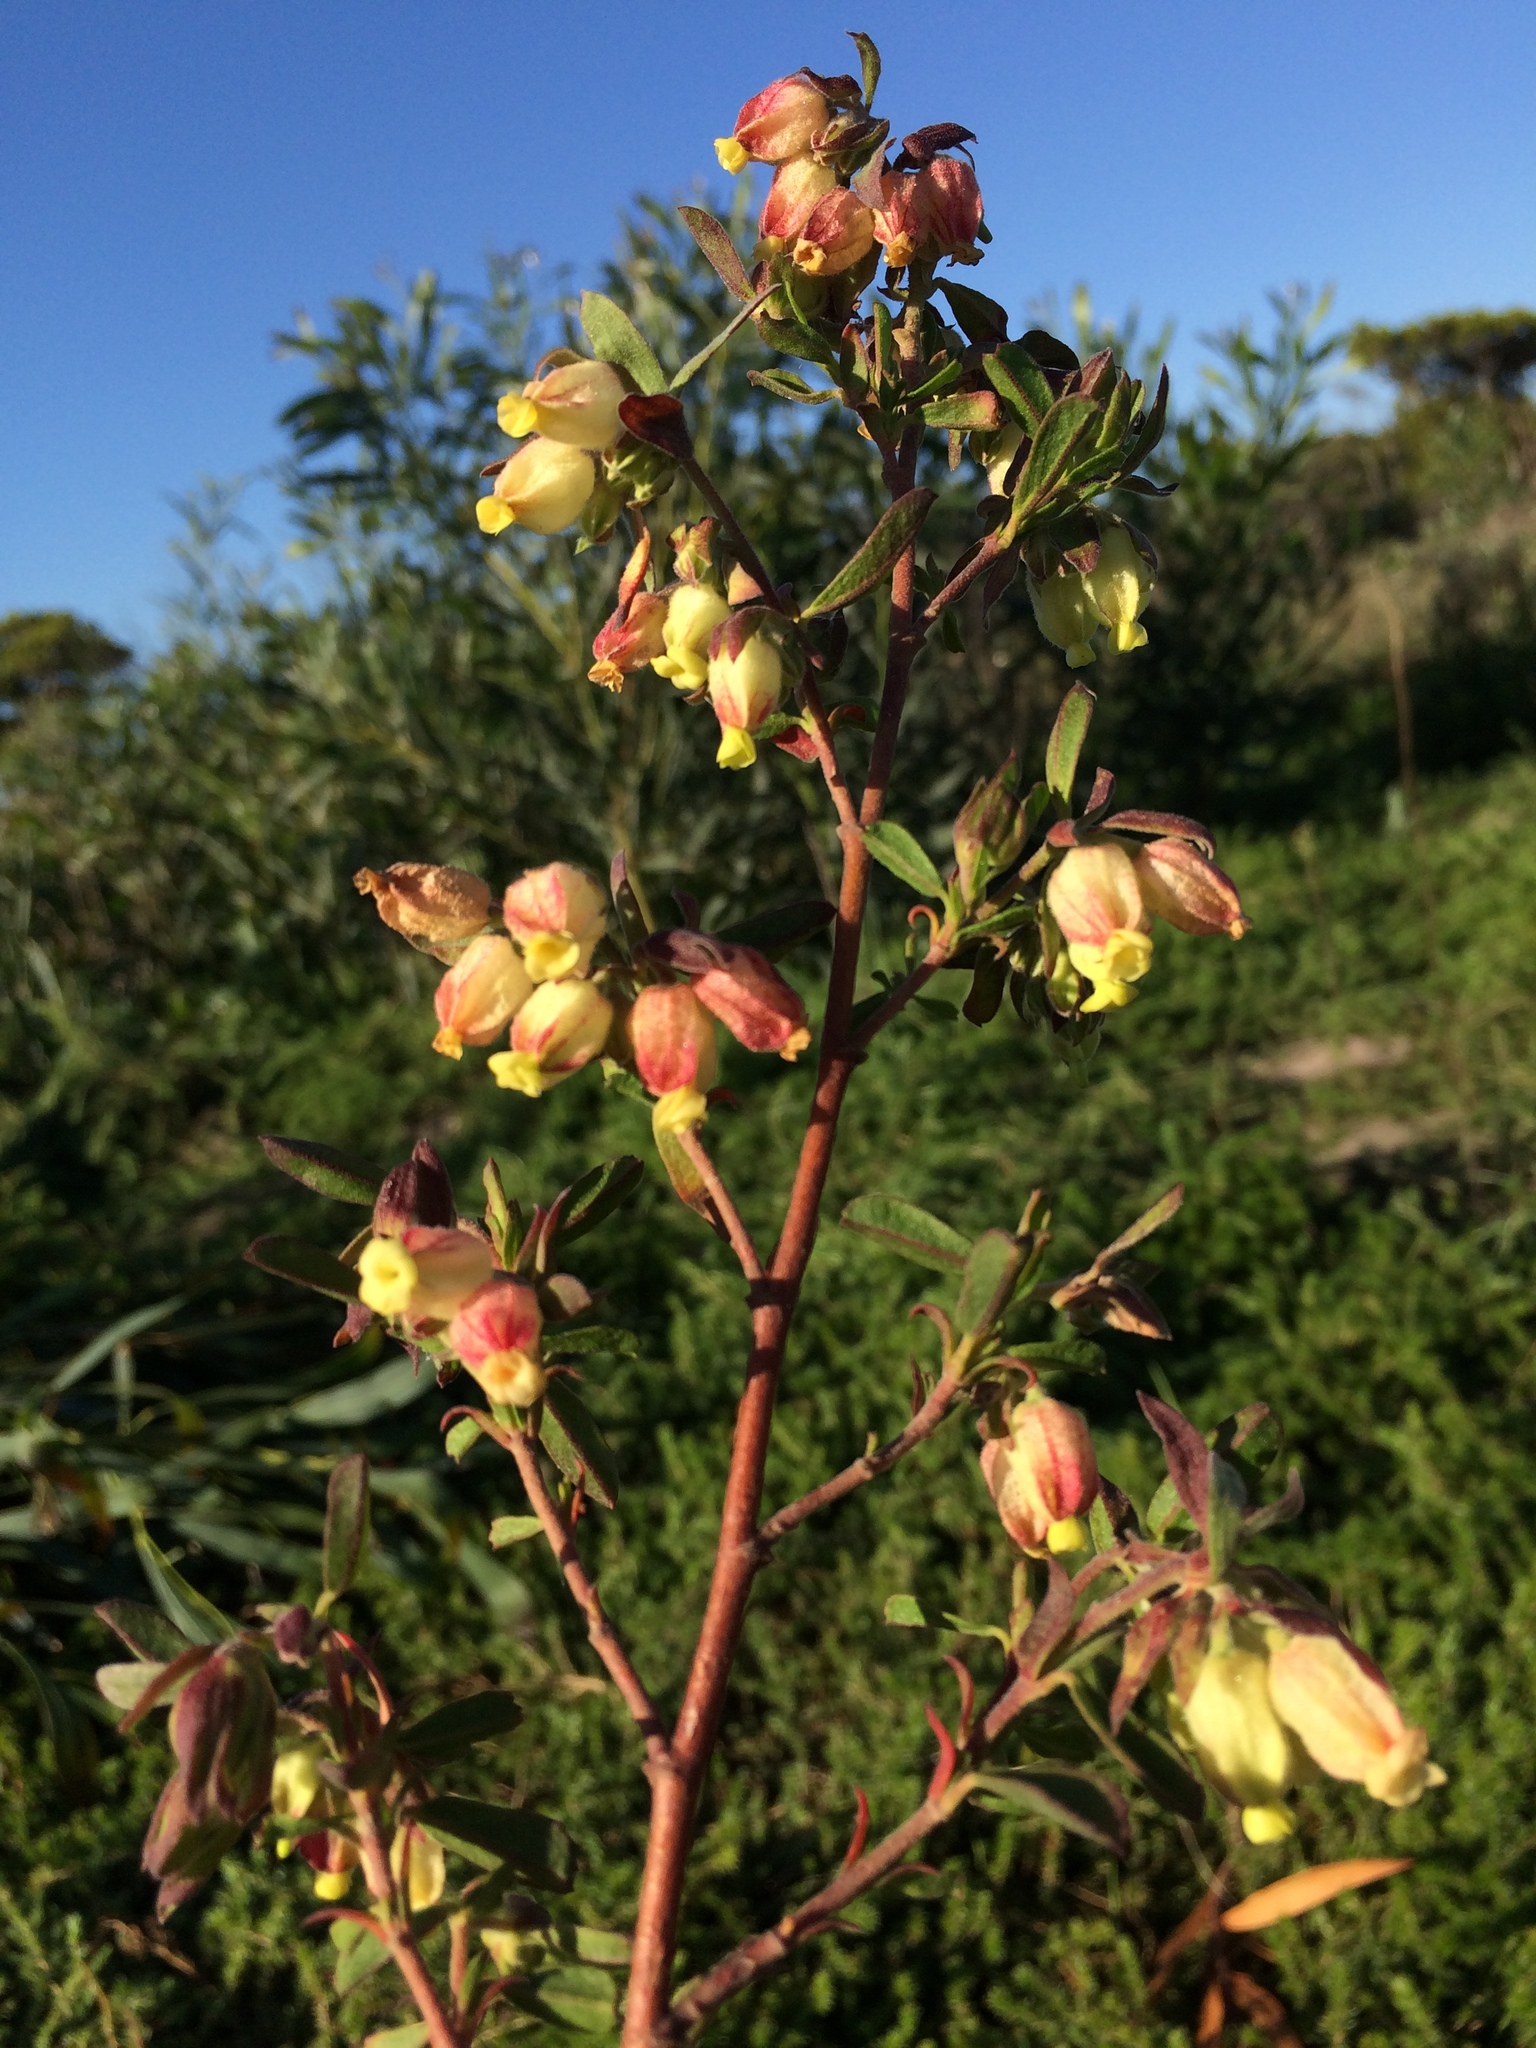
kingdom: Plantae
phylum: Tracheophyta
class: Magnoliopsida
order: Malvales
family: Malvaceae
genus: Hermannia
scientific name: Hermannia hyssopifolia
